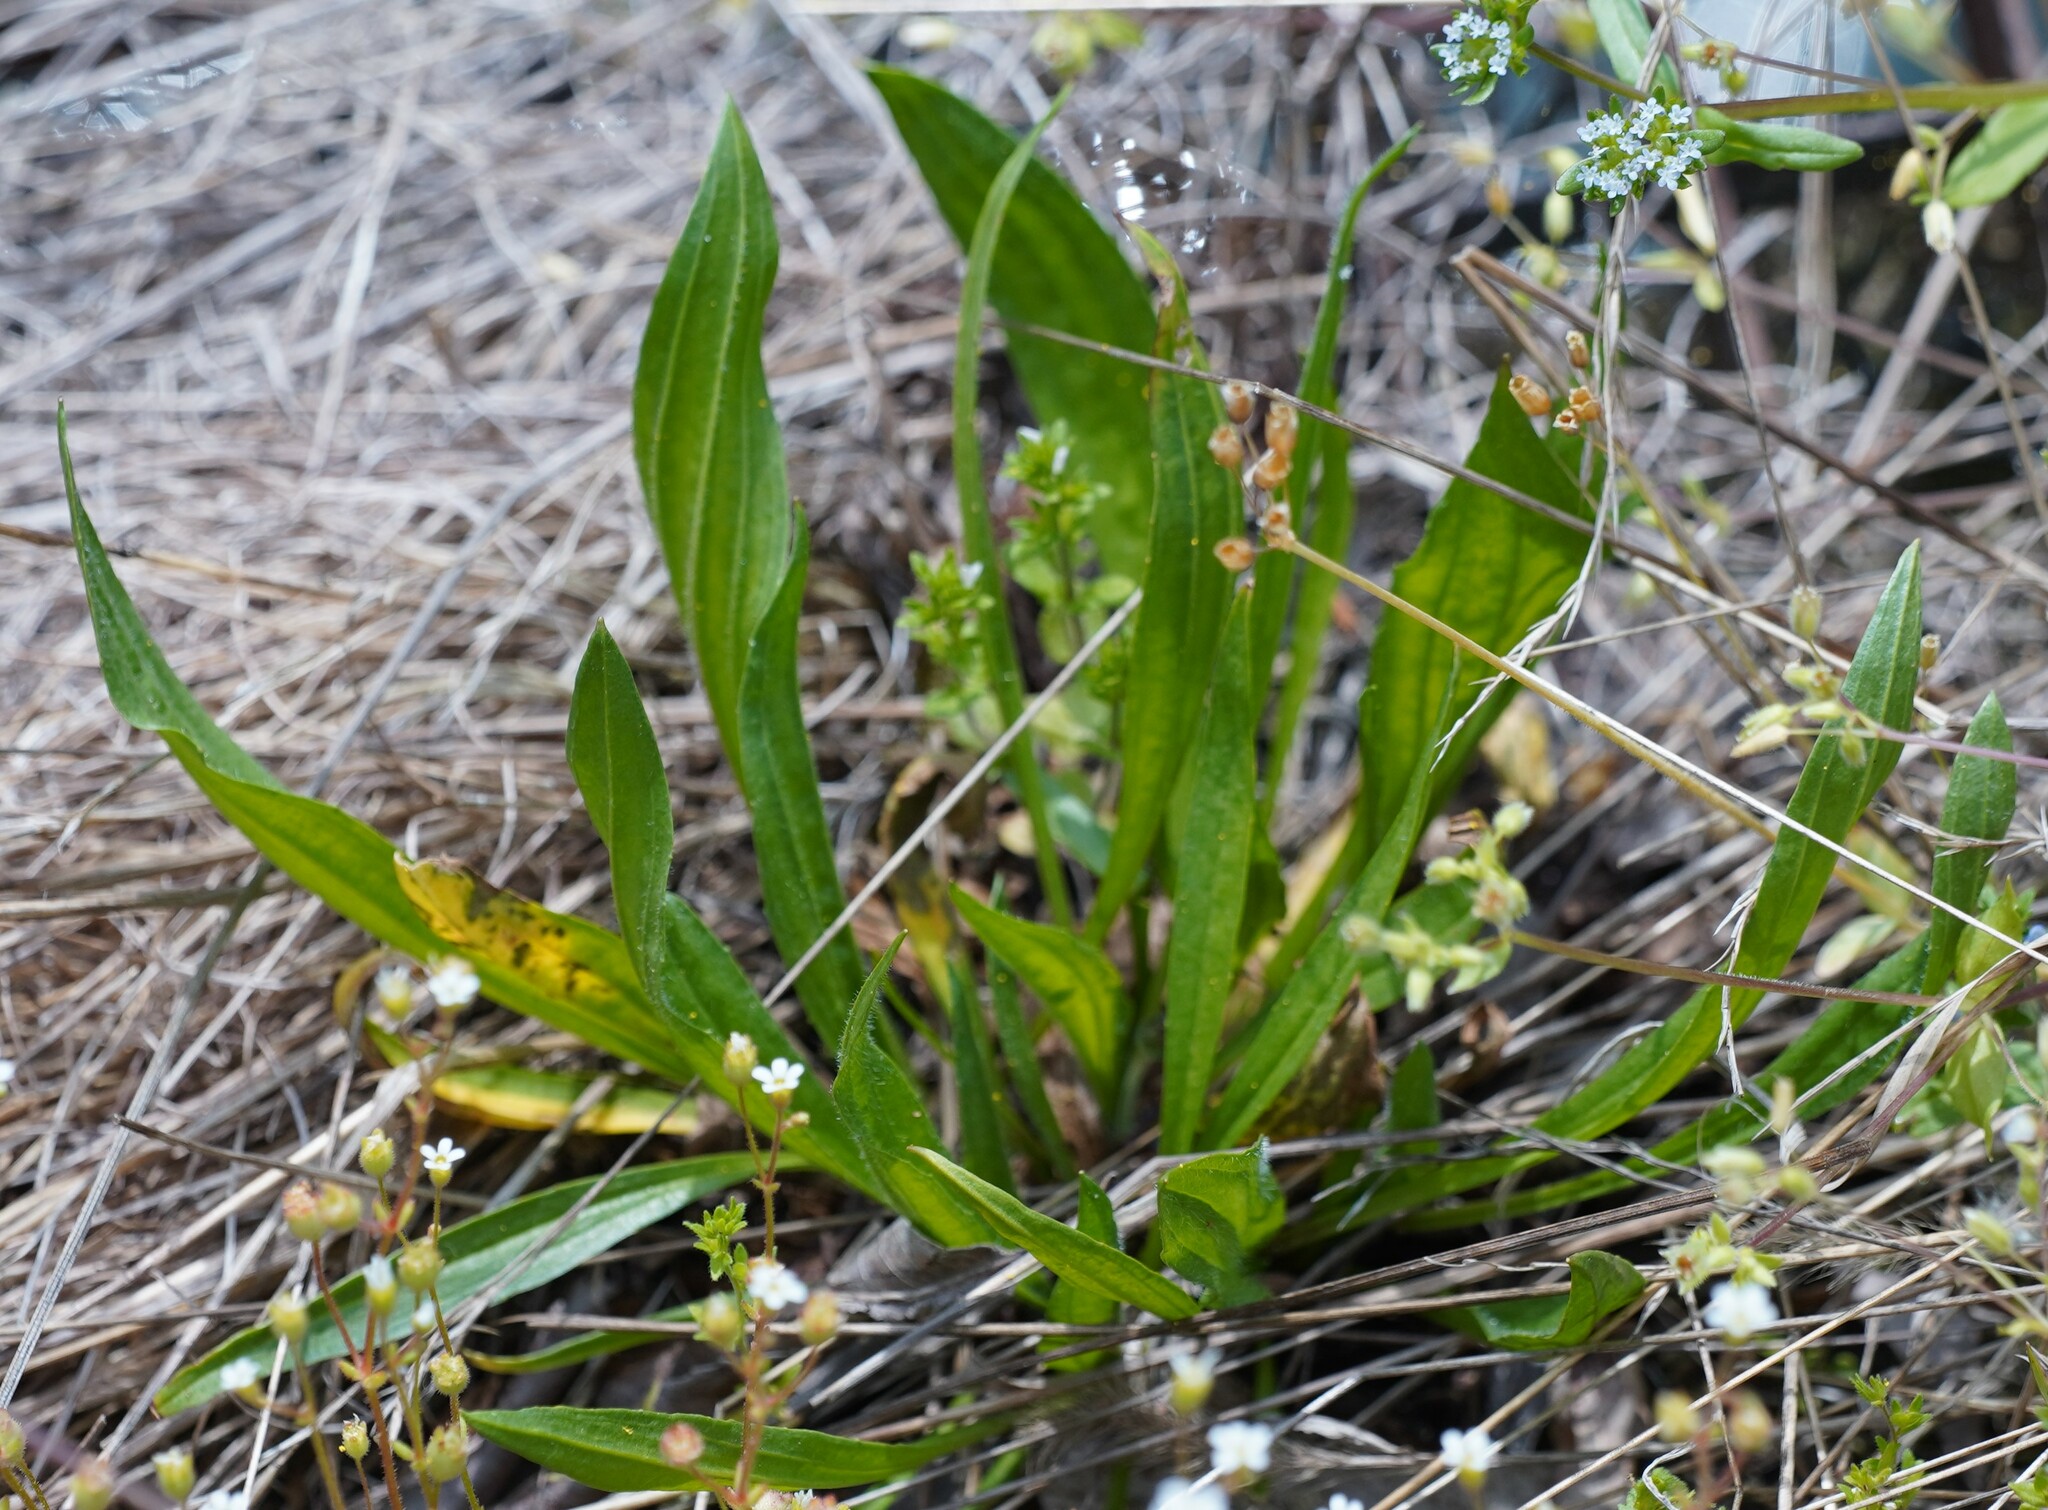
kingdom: Plantae
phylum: Tracheophyta
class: Magnoliopsida
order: Lamiales
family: Plantaginaceae
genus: Plantago
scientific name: Plantago lanceolata
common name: Ribwort plantain
